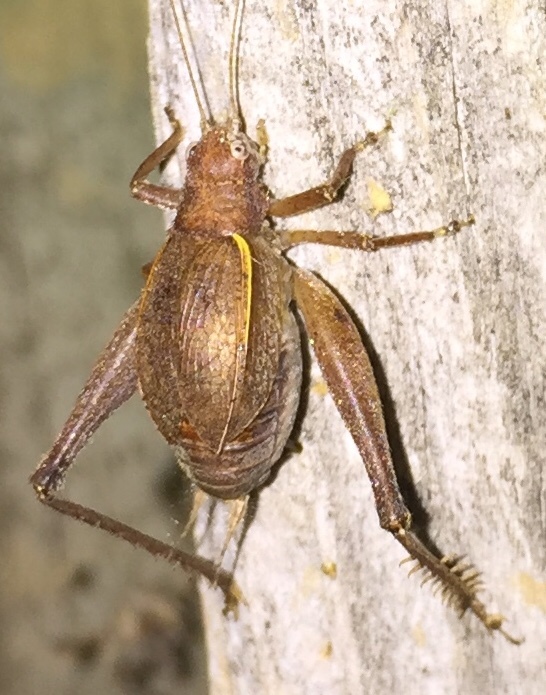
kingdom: Animalia
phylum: Arthropoda
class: Insecta
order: Orthoptera
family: Gryllidae
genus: Hapithus
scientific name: Hapithus agitator
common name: Restless bush cricket
